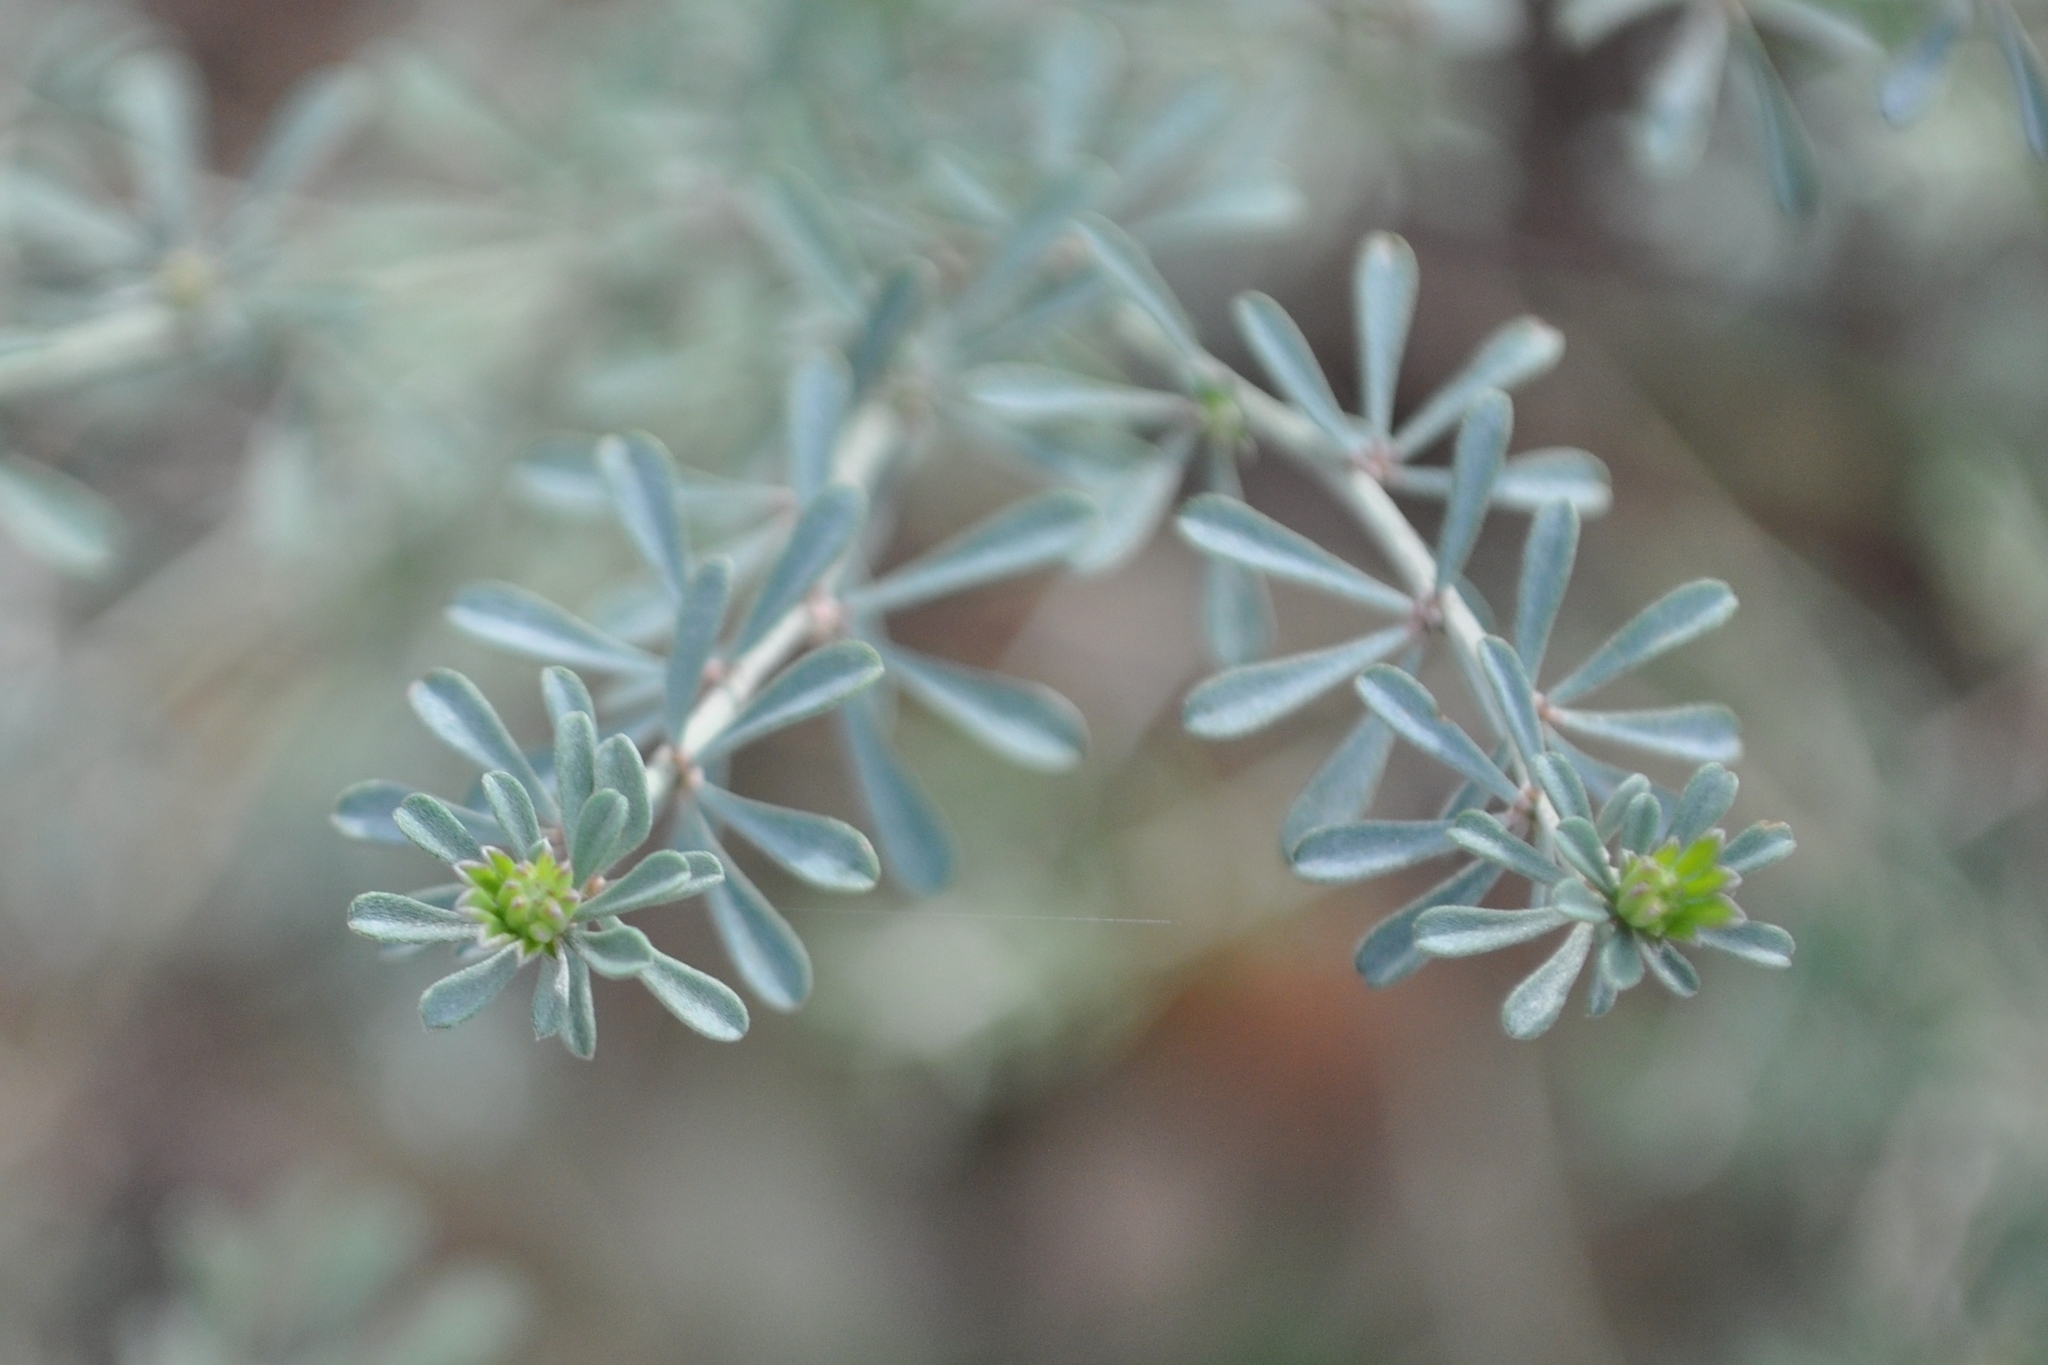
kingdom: Plantae
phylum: Tracheophyta
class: Magnoliopsida
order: Fabales
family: Fabaceae
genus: Lotus
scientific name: Lotus dorycnium
